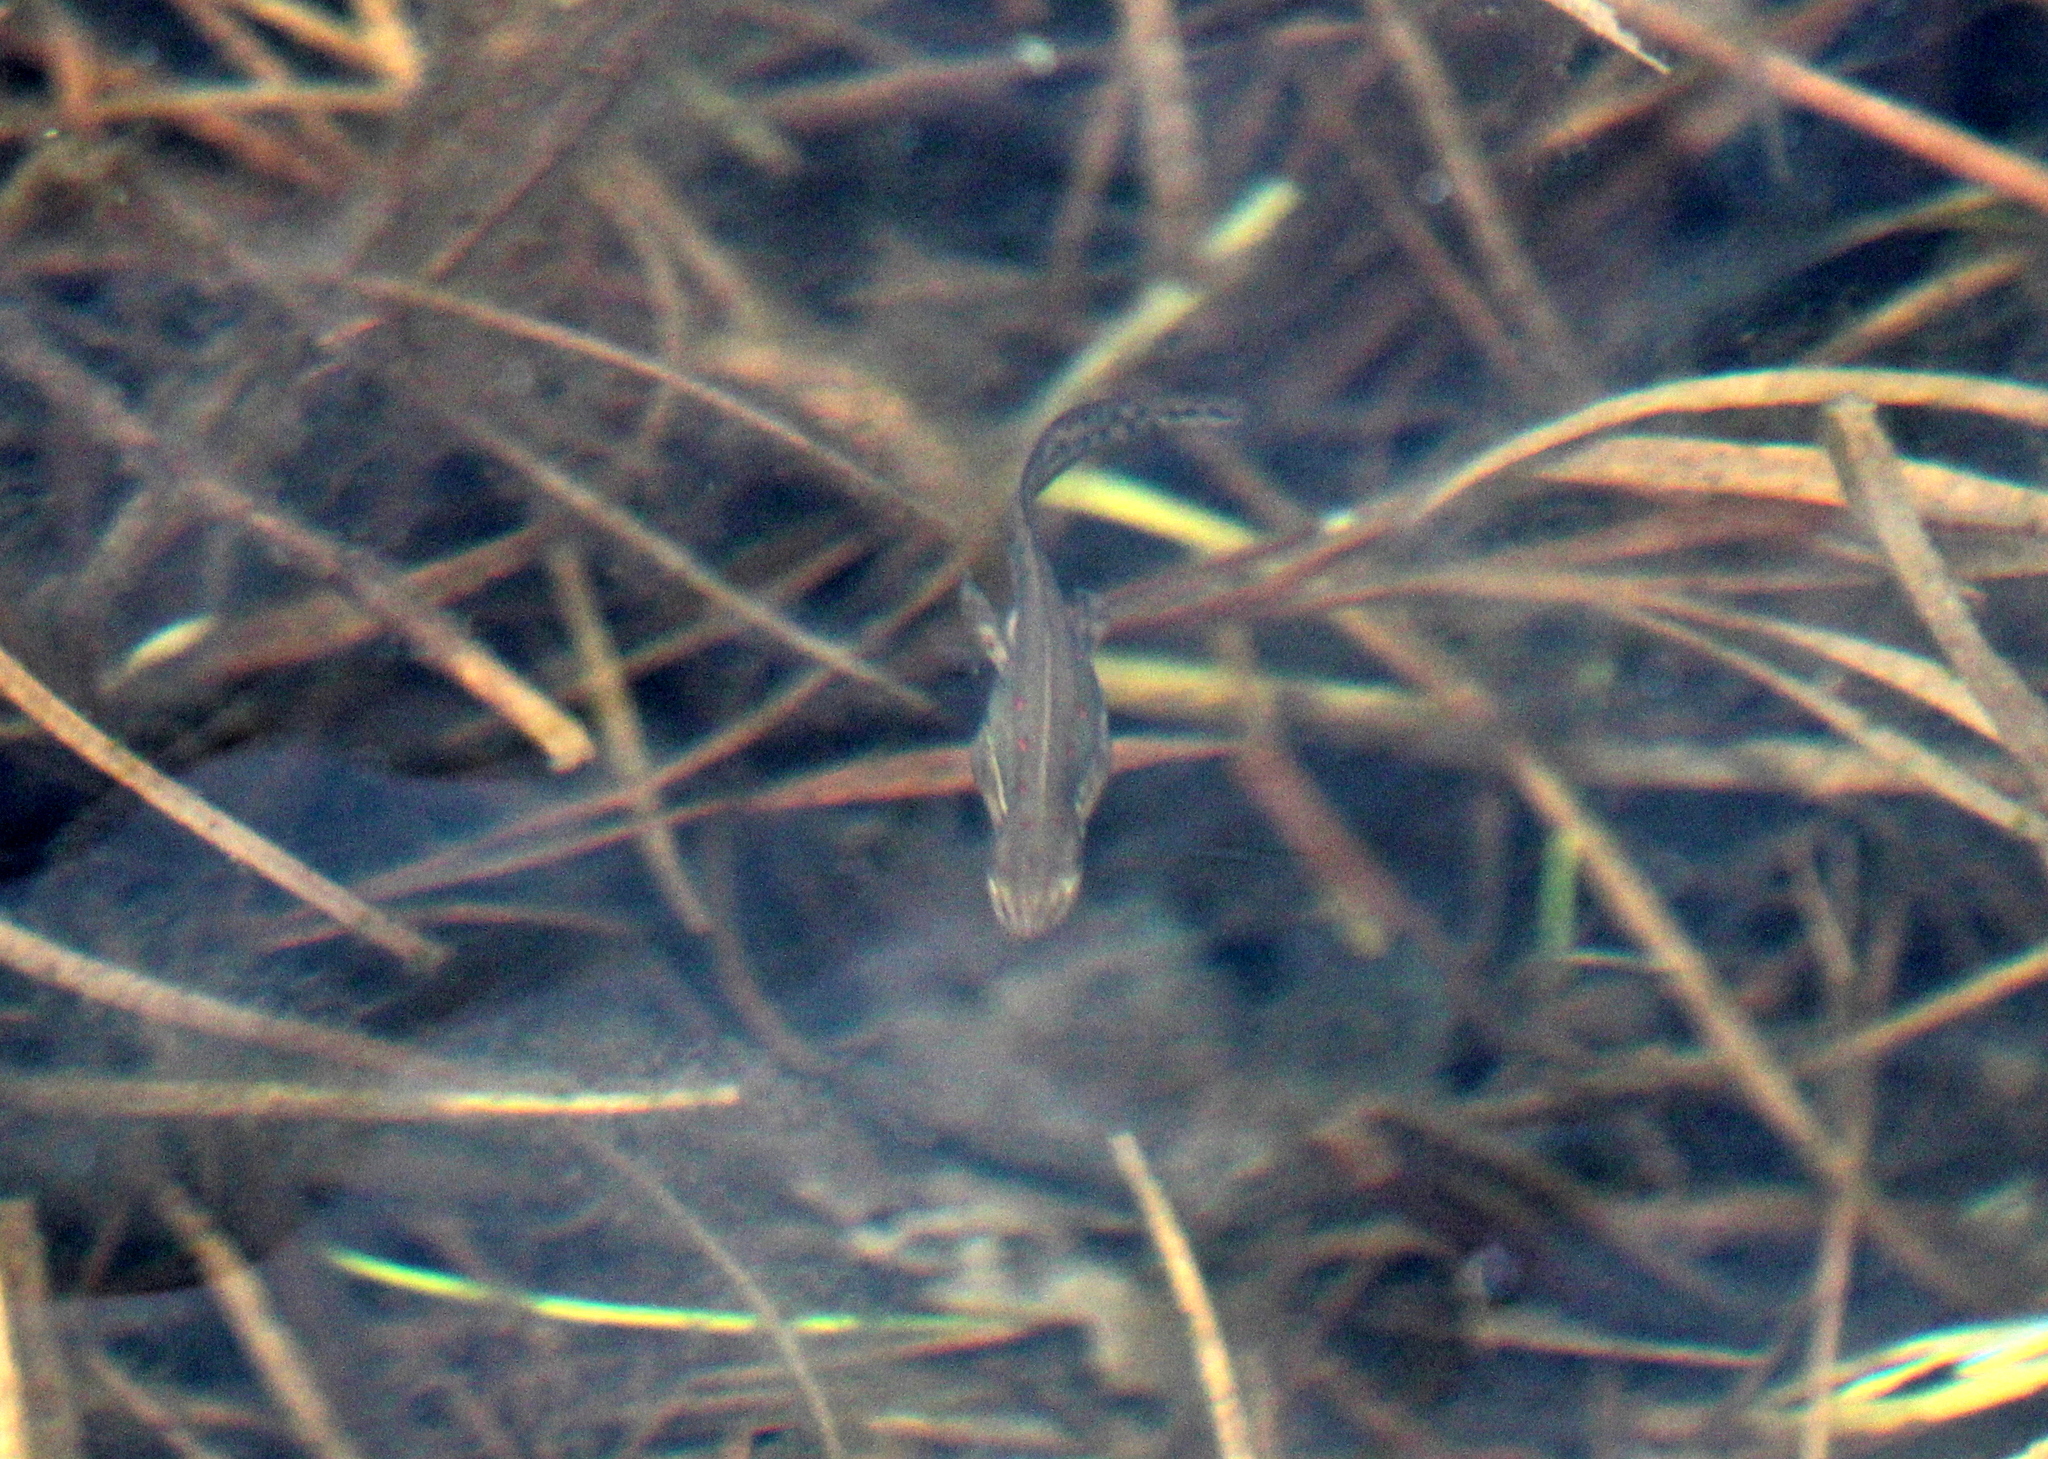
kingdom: Animalia
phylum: Chordata
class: Amphibia
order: Caudata
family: Salamandridae
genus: Notophthalmus
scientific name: Notophthalmus viridescens
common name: Eastern newt
